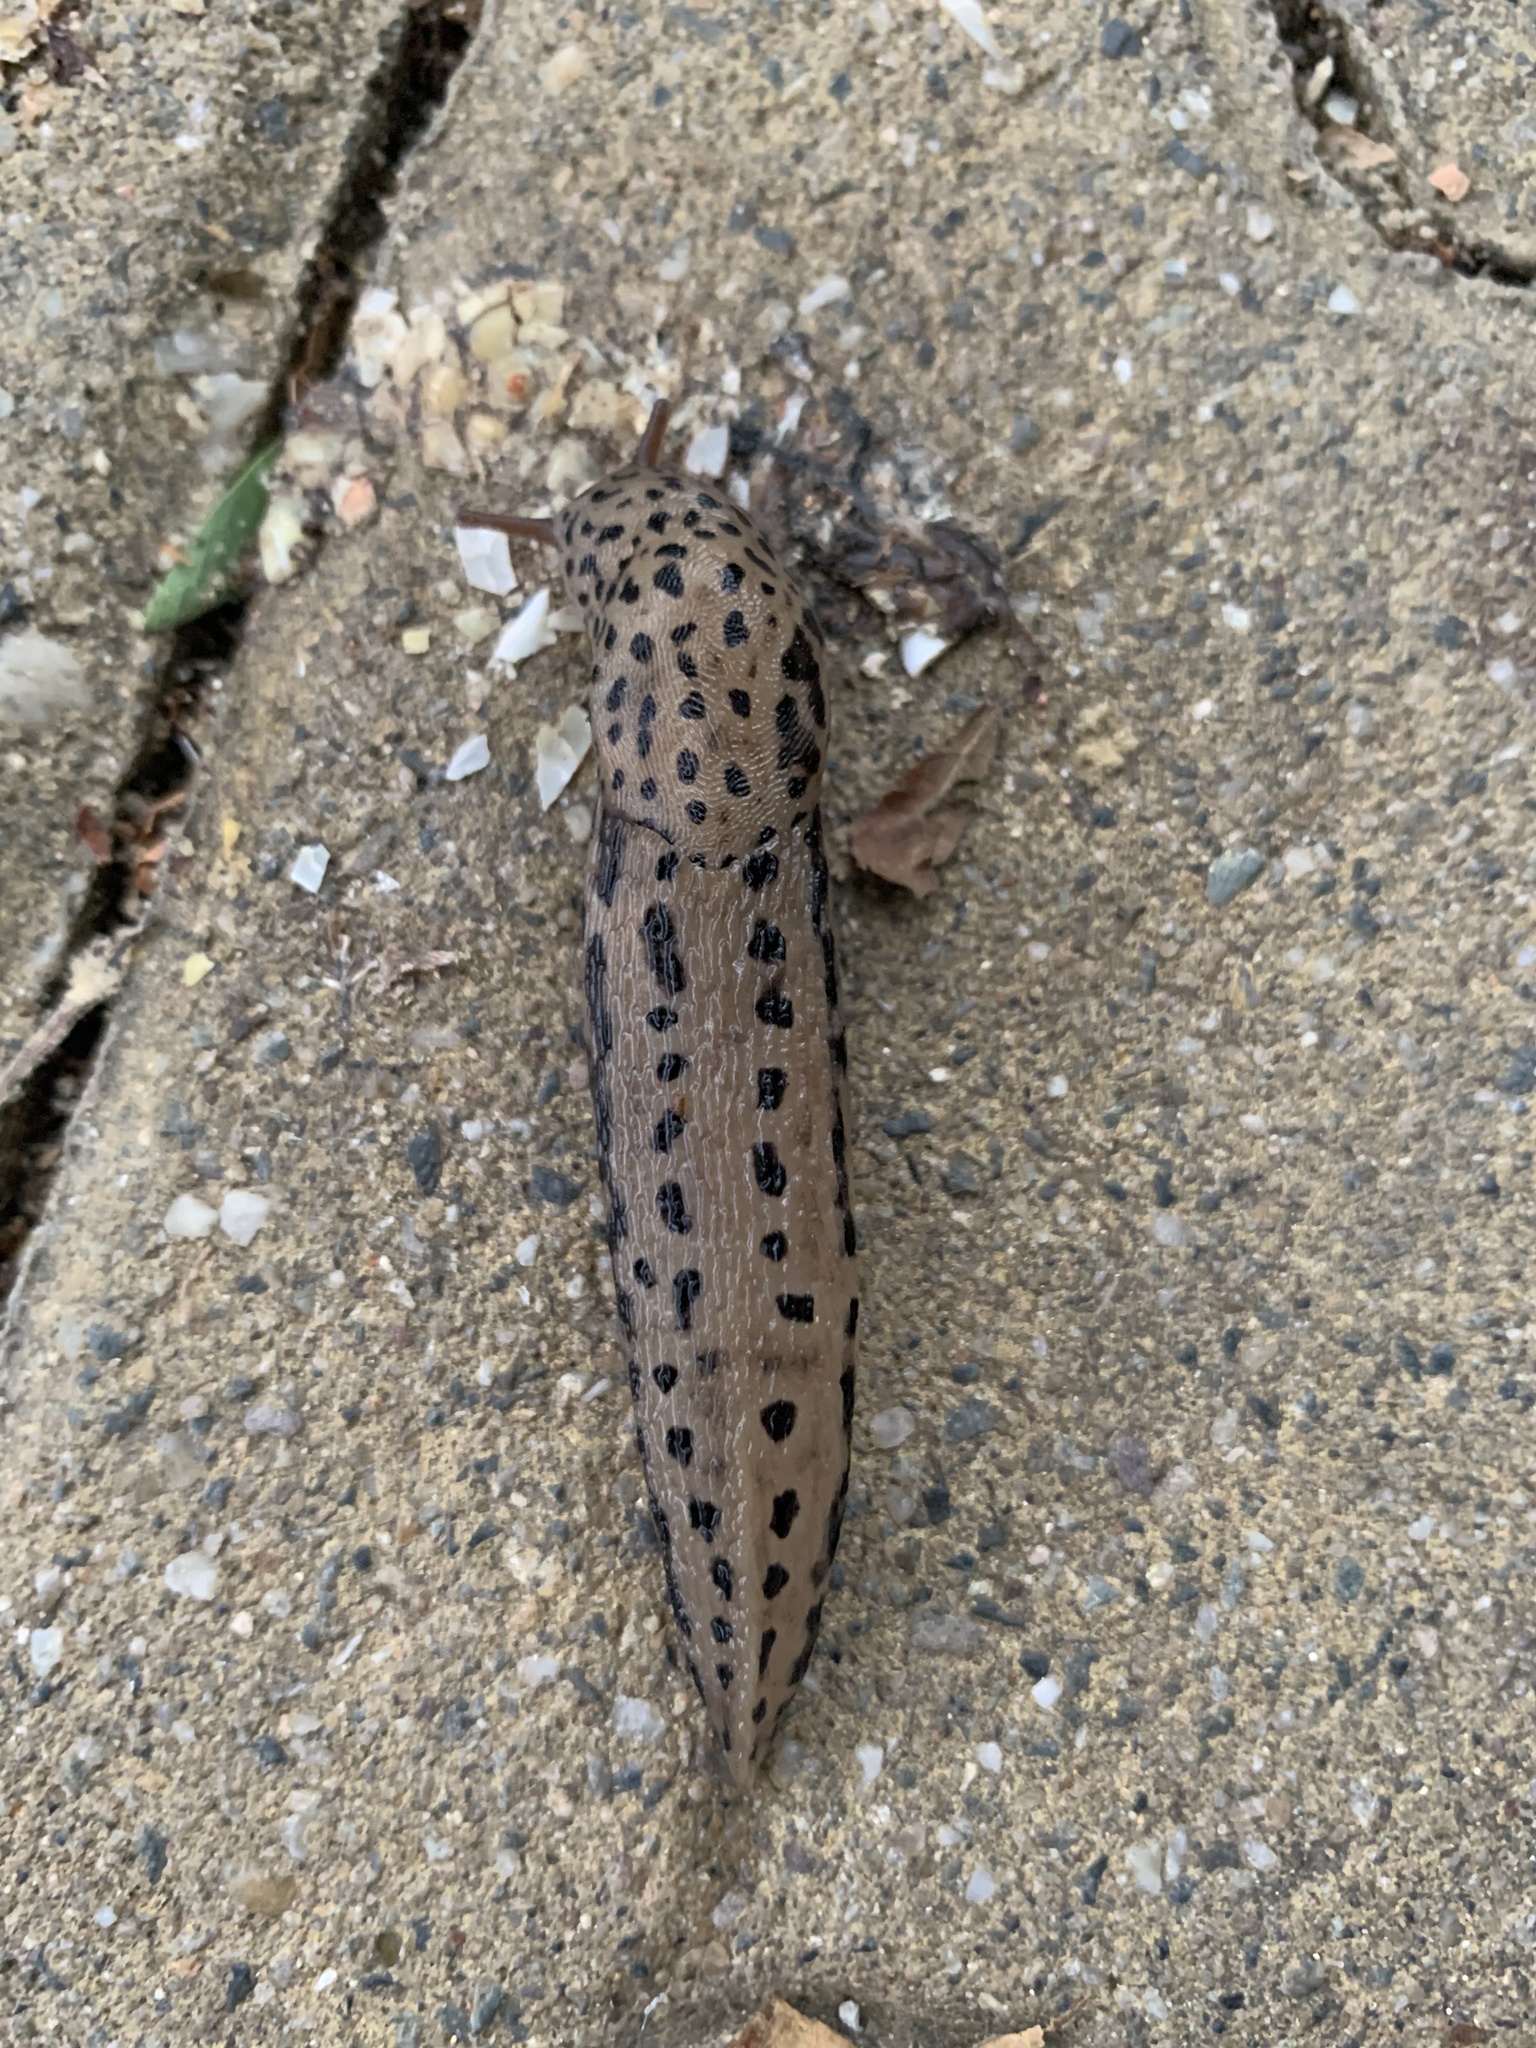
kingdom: Animalia
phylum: Mollusca
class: Gastropoda
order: Stylommatophora
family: Limacidae
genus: Limax
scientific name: Limax maximus
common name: Great grey slug
